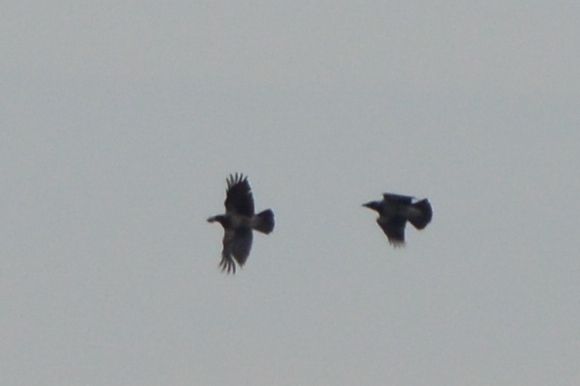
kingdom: Animalia
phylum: Chordata
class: Aves
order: Passeriformes
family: Corvidae
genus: Corvus
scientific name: Corvus cornix
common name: Hooded crow
